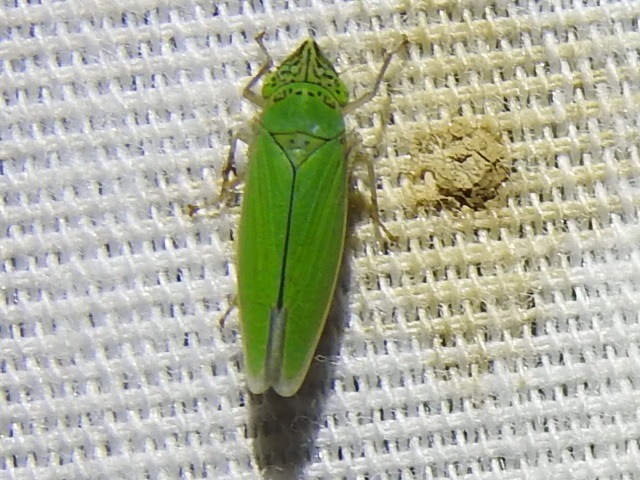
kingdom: Animalia
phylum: Arthropoda
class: Insecta
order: Hemiptera
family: Cicadellidae
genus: Draeculacephala
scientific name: Draeculacephala inscripta
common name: Leafhopper
